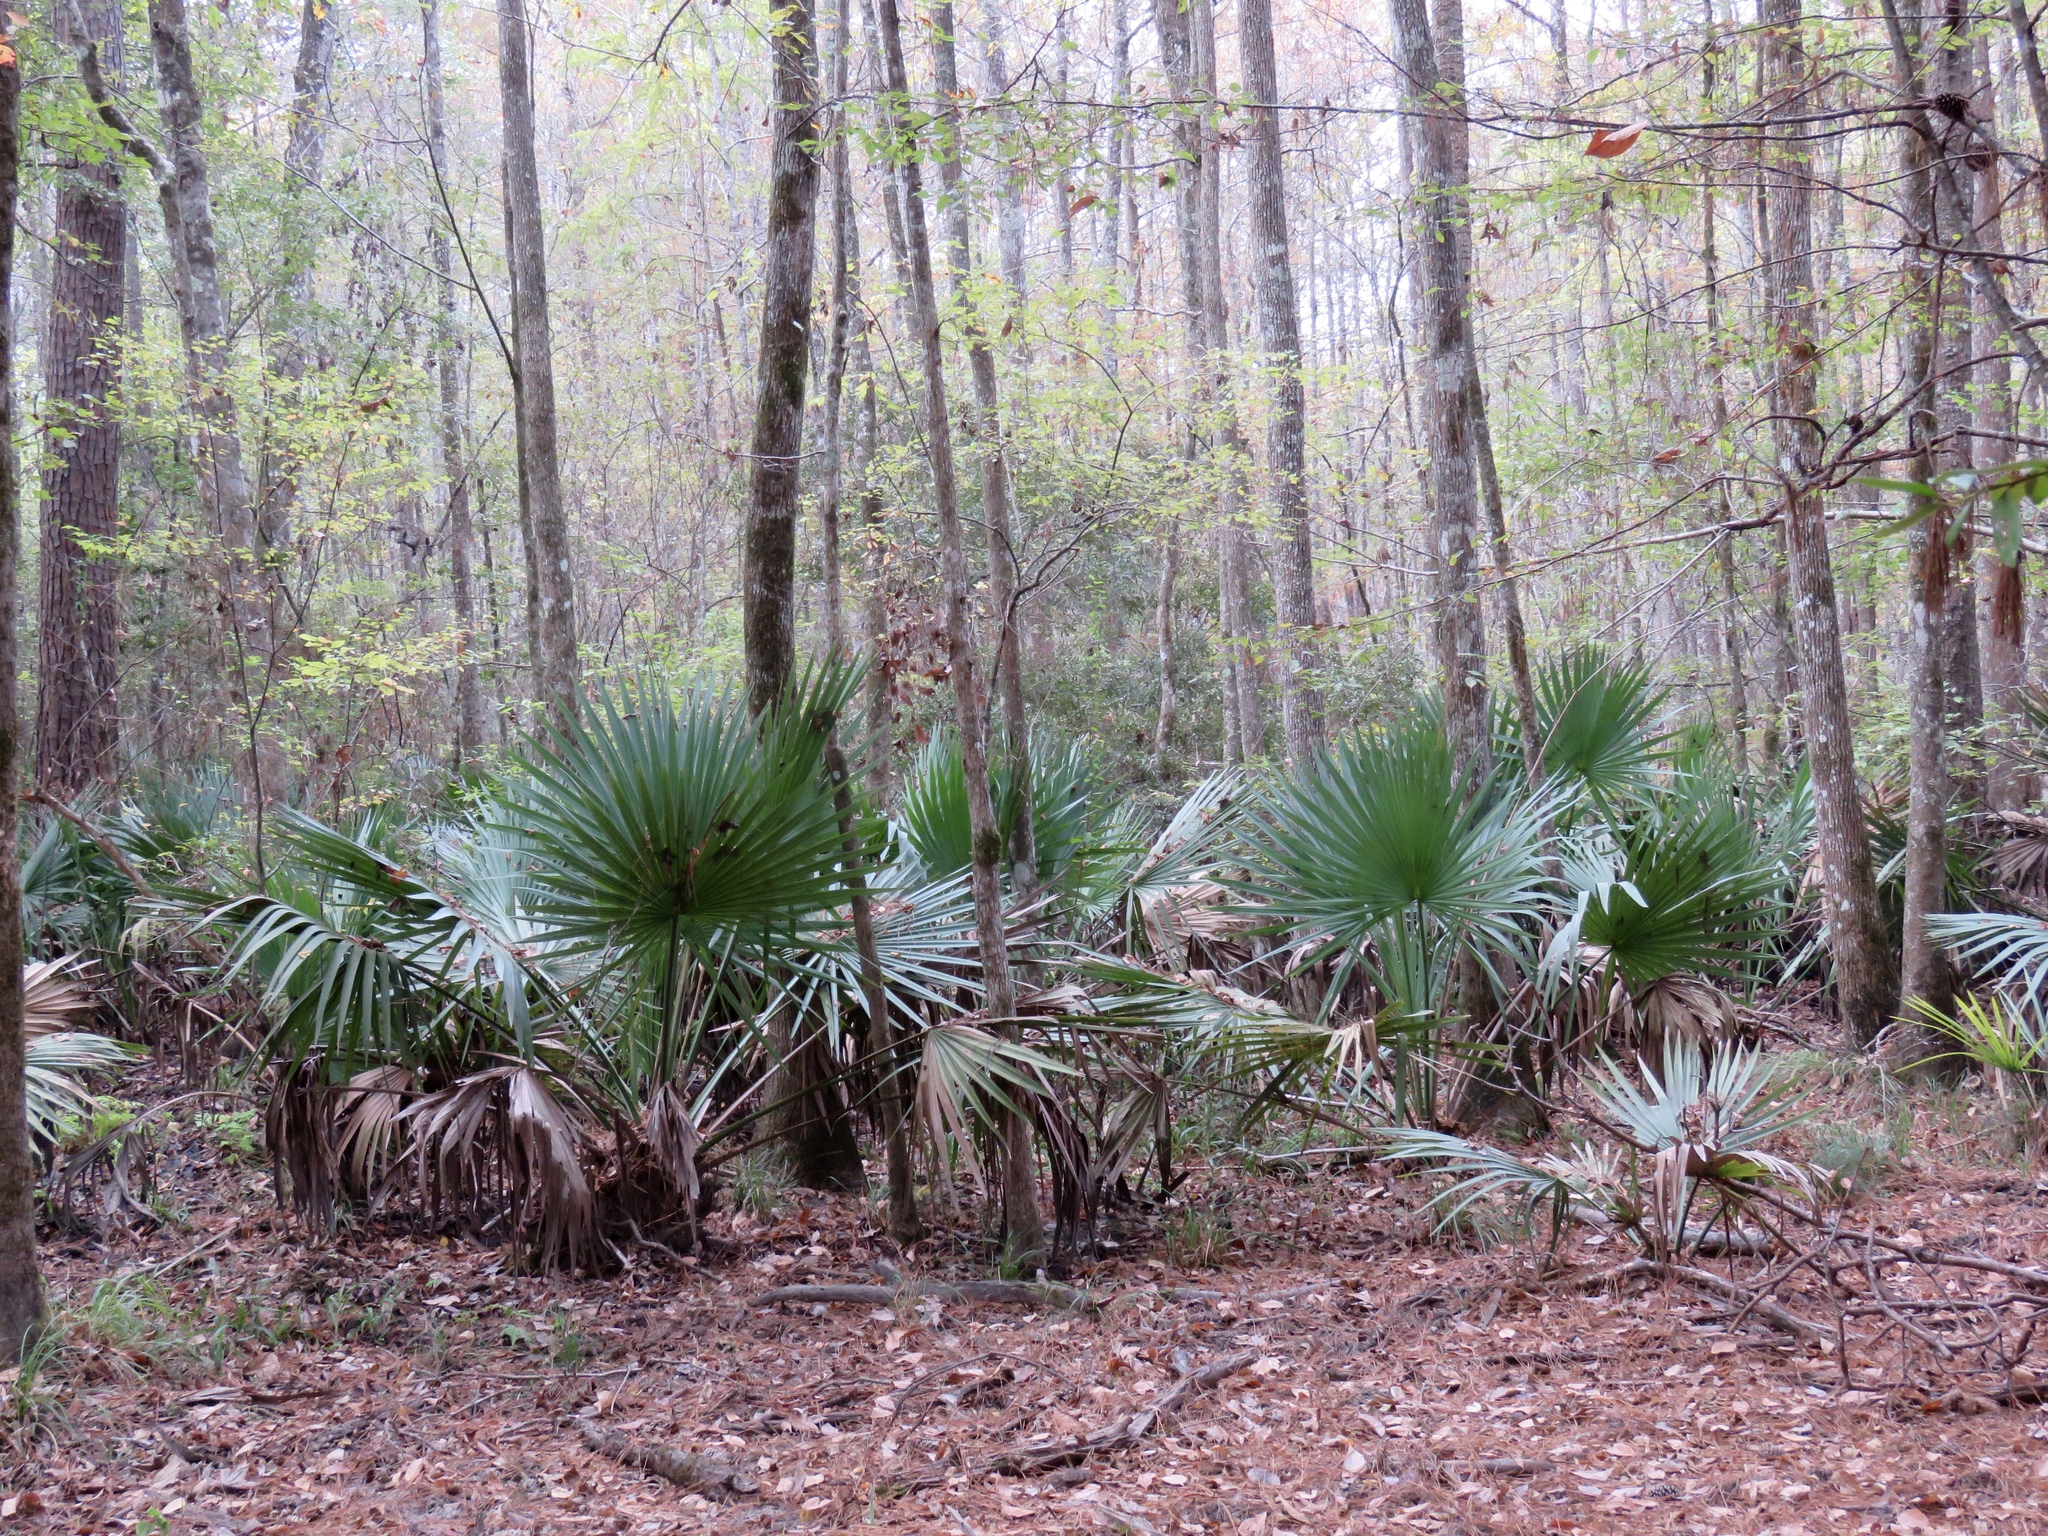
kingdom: Plantae
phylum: Tracheophyta
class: Liliopsida
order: Arecales
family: Arecaceae
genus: Sabal
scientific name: Sabal minor
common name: Dwarf palmetto
